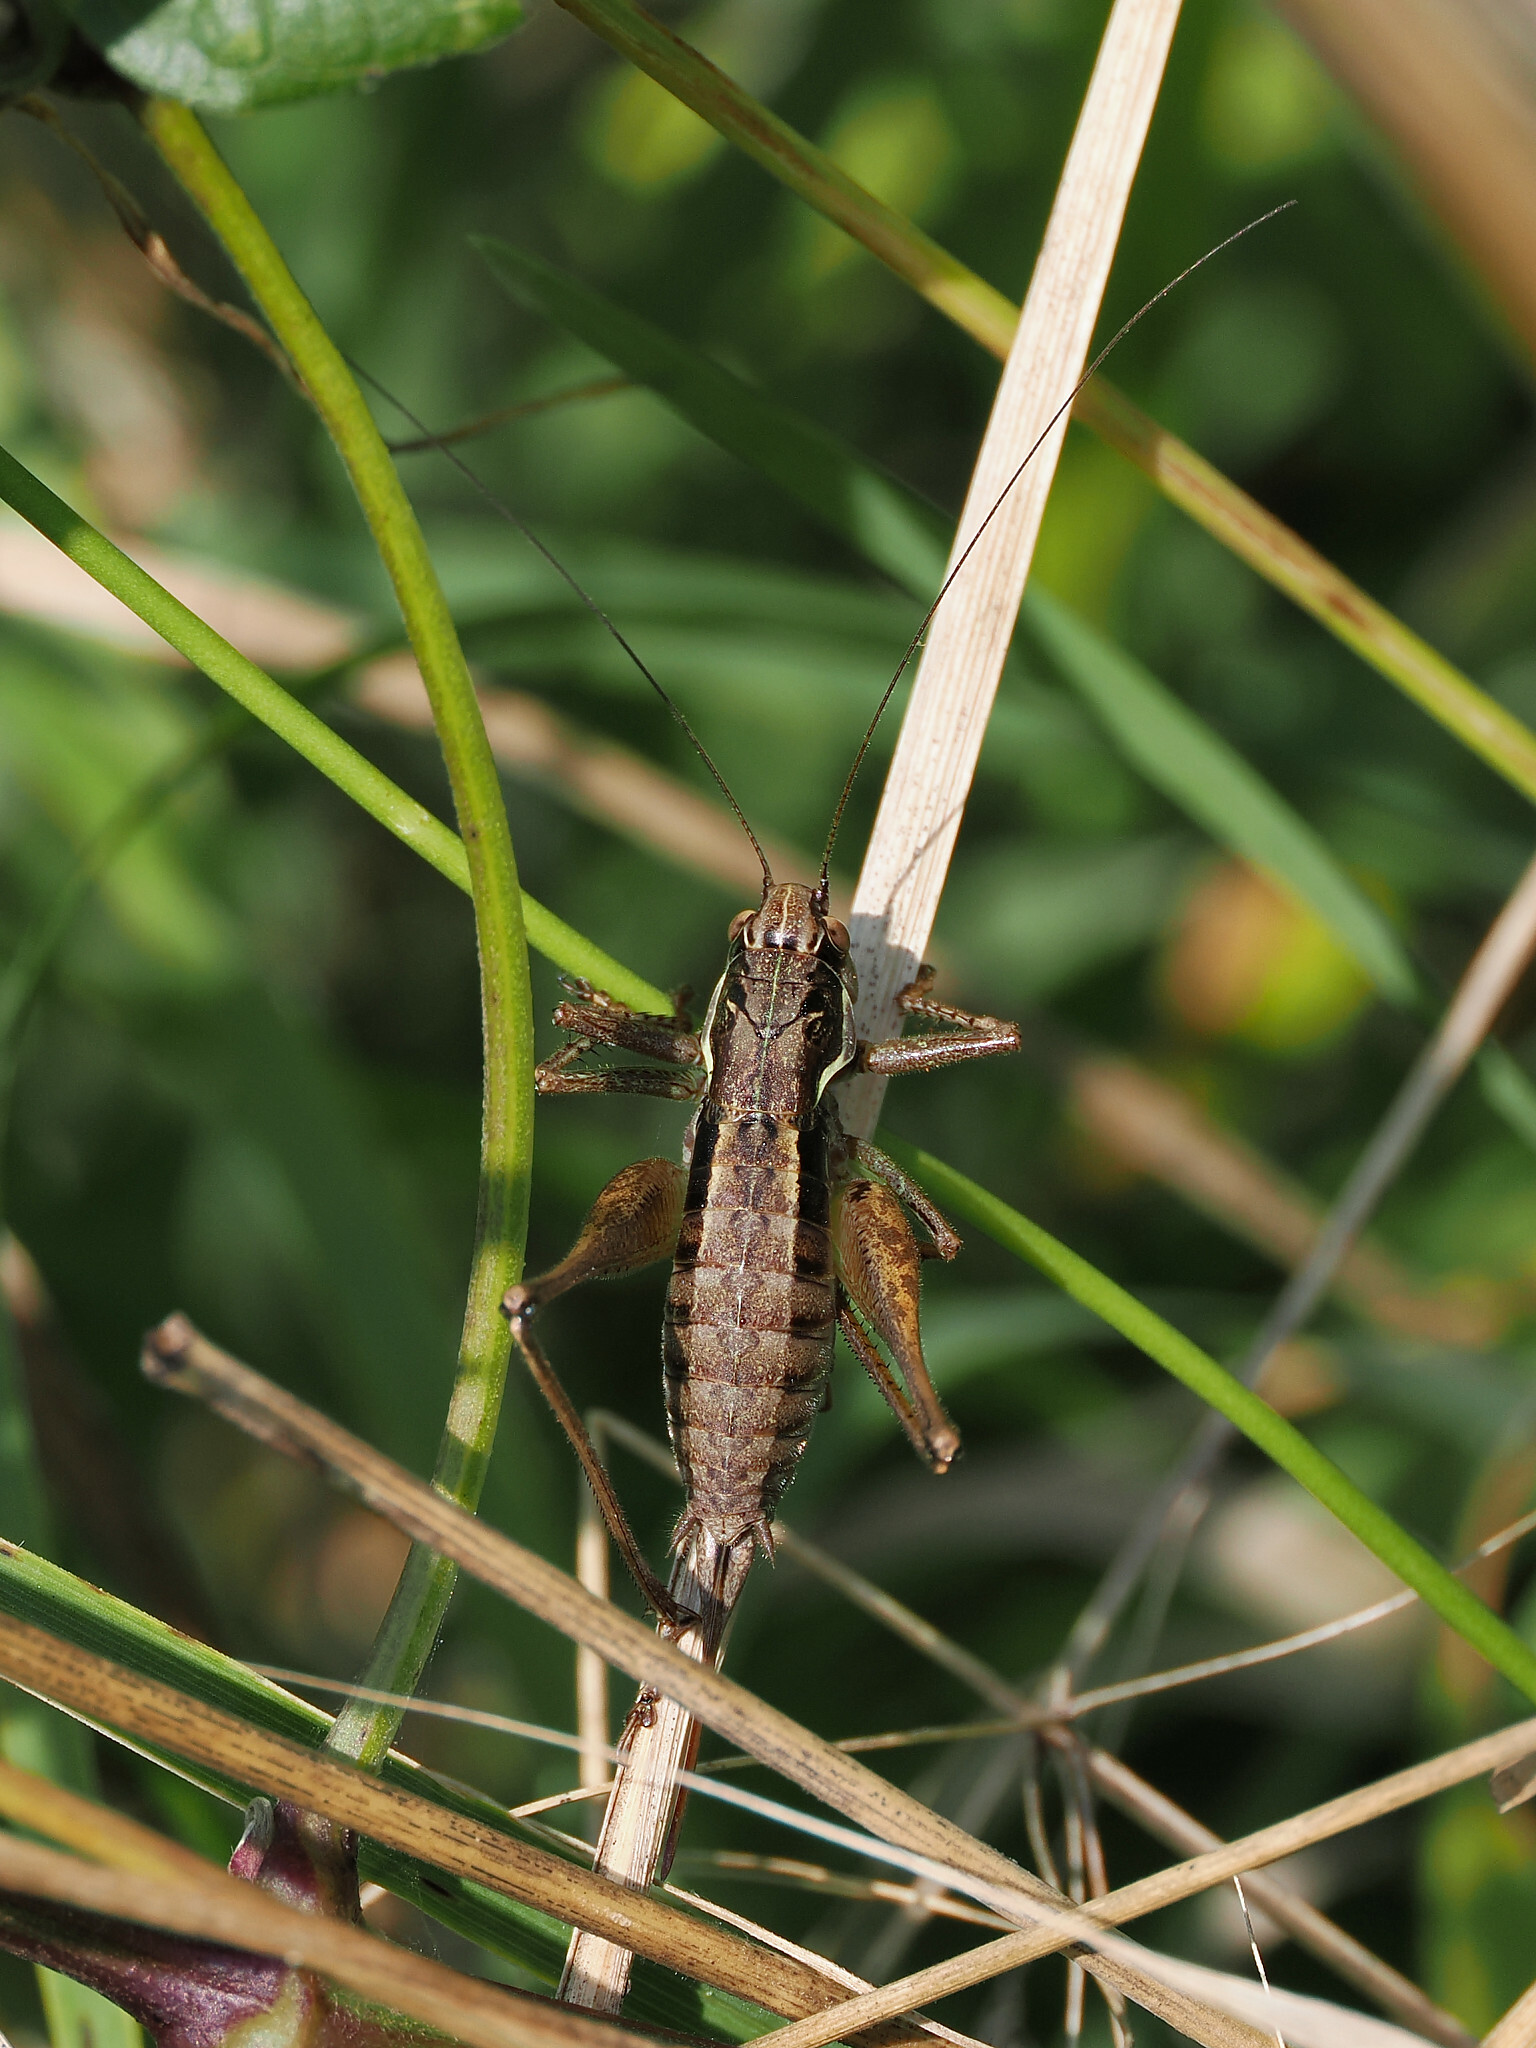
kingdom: Animalia
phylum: Arthropoda
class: Insecta
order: Orthoptera
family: Tettigoniidae
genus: Pachytrachis
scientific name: Pachytrachis gracilis
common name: Graceful bush-cricket
